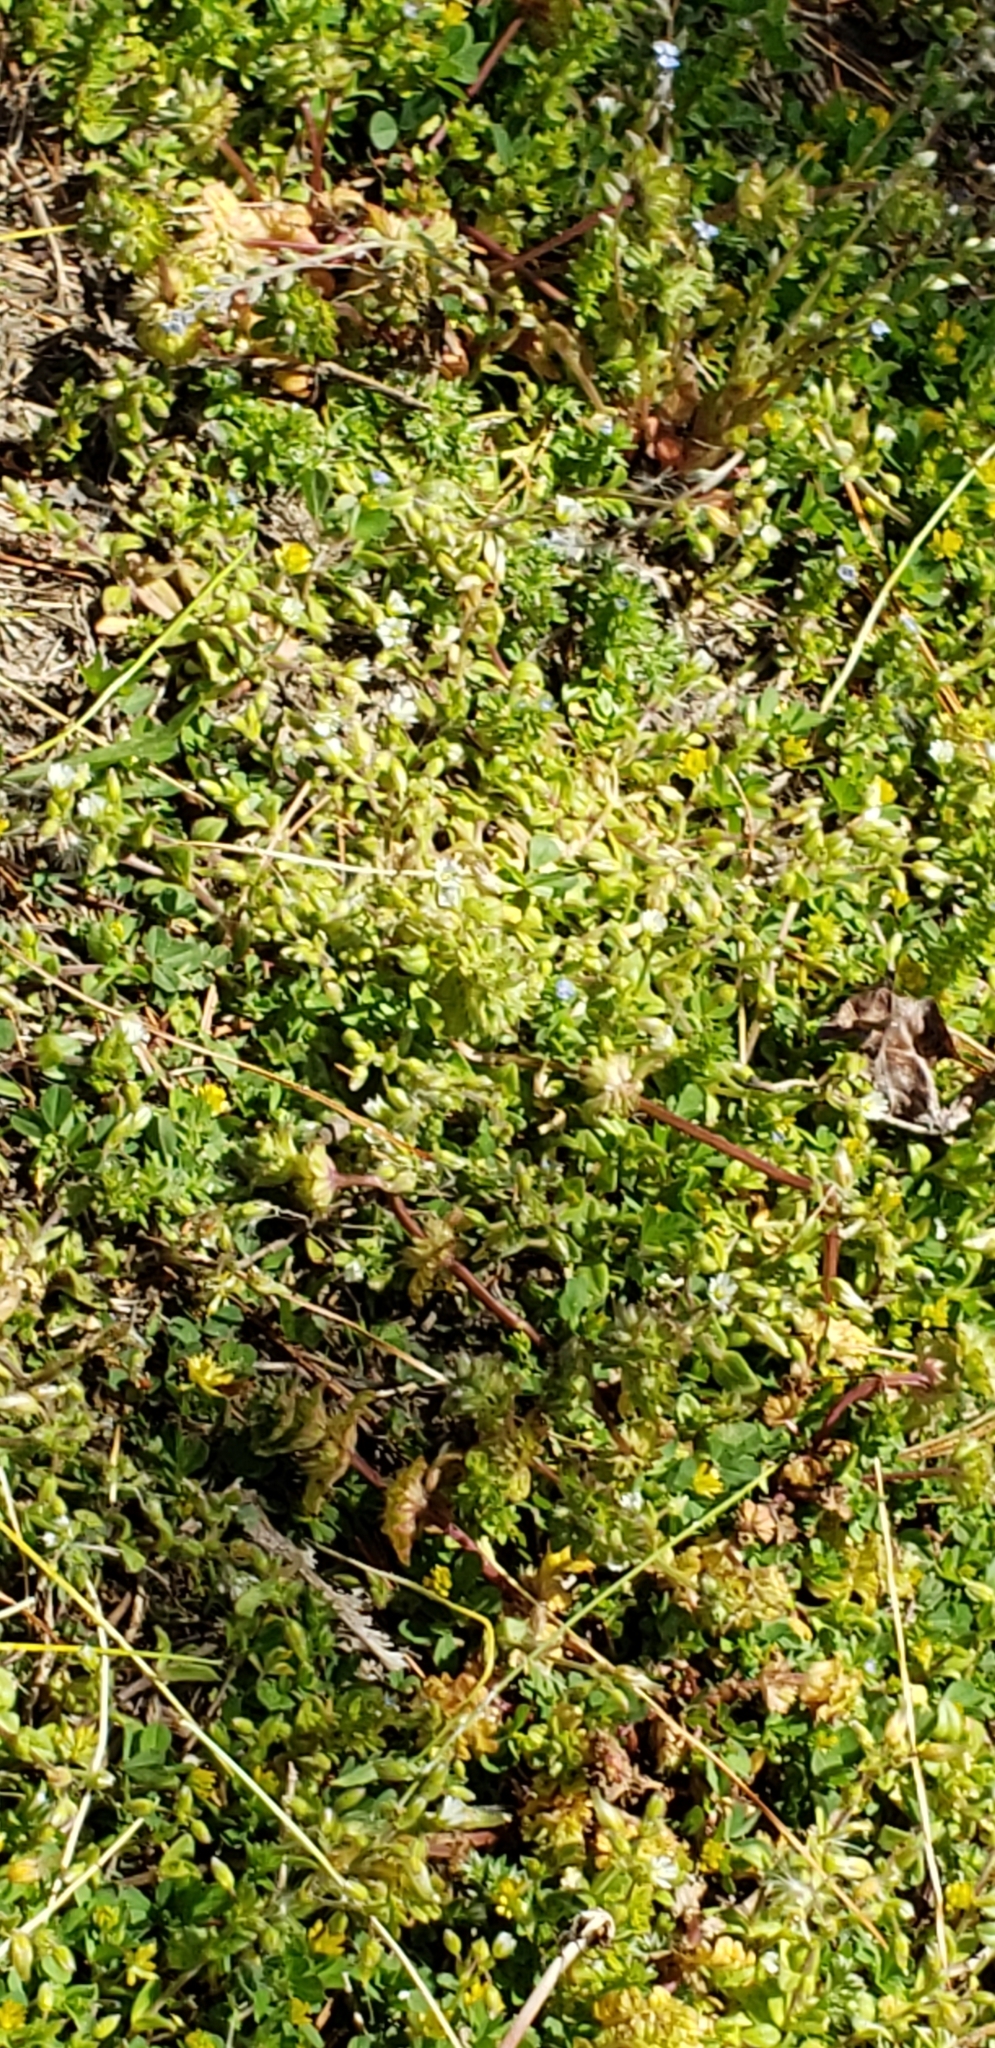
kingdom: Plantae
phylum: Tracheophyta
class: Magnoliopsida
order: Fabales
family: Fabaceae
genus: Trifolium
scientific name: Trifolium dubium
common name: Suckling clover
